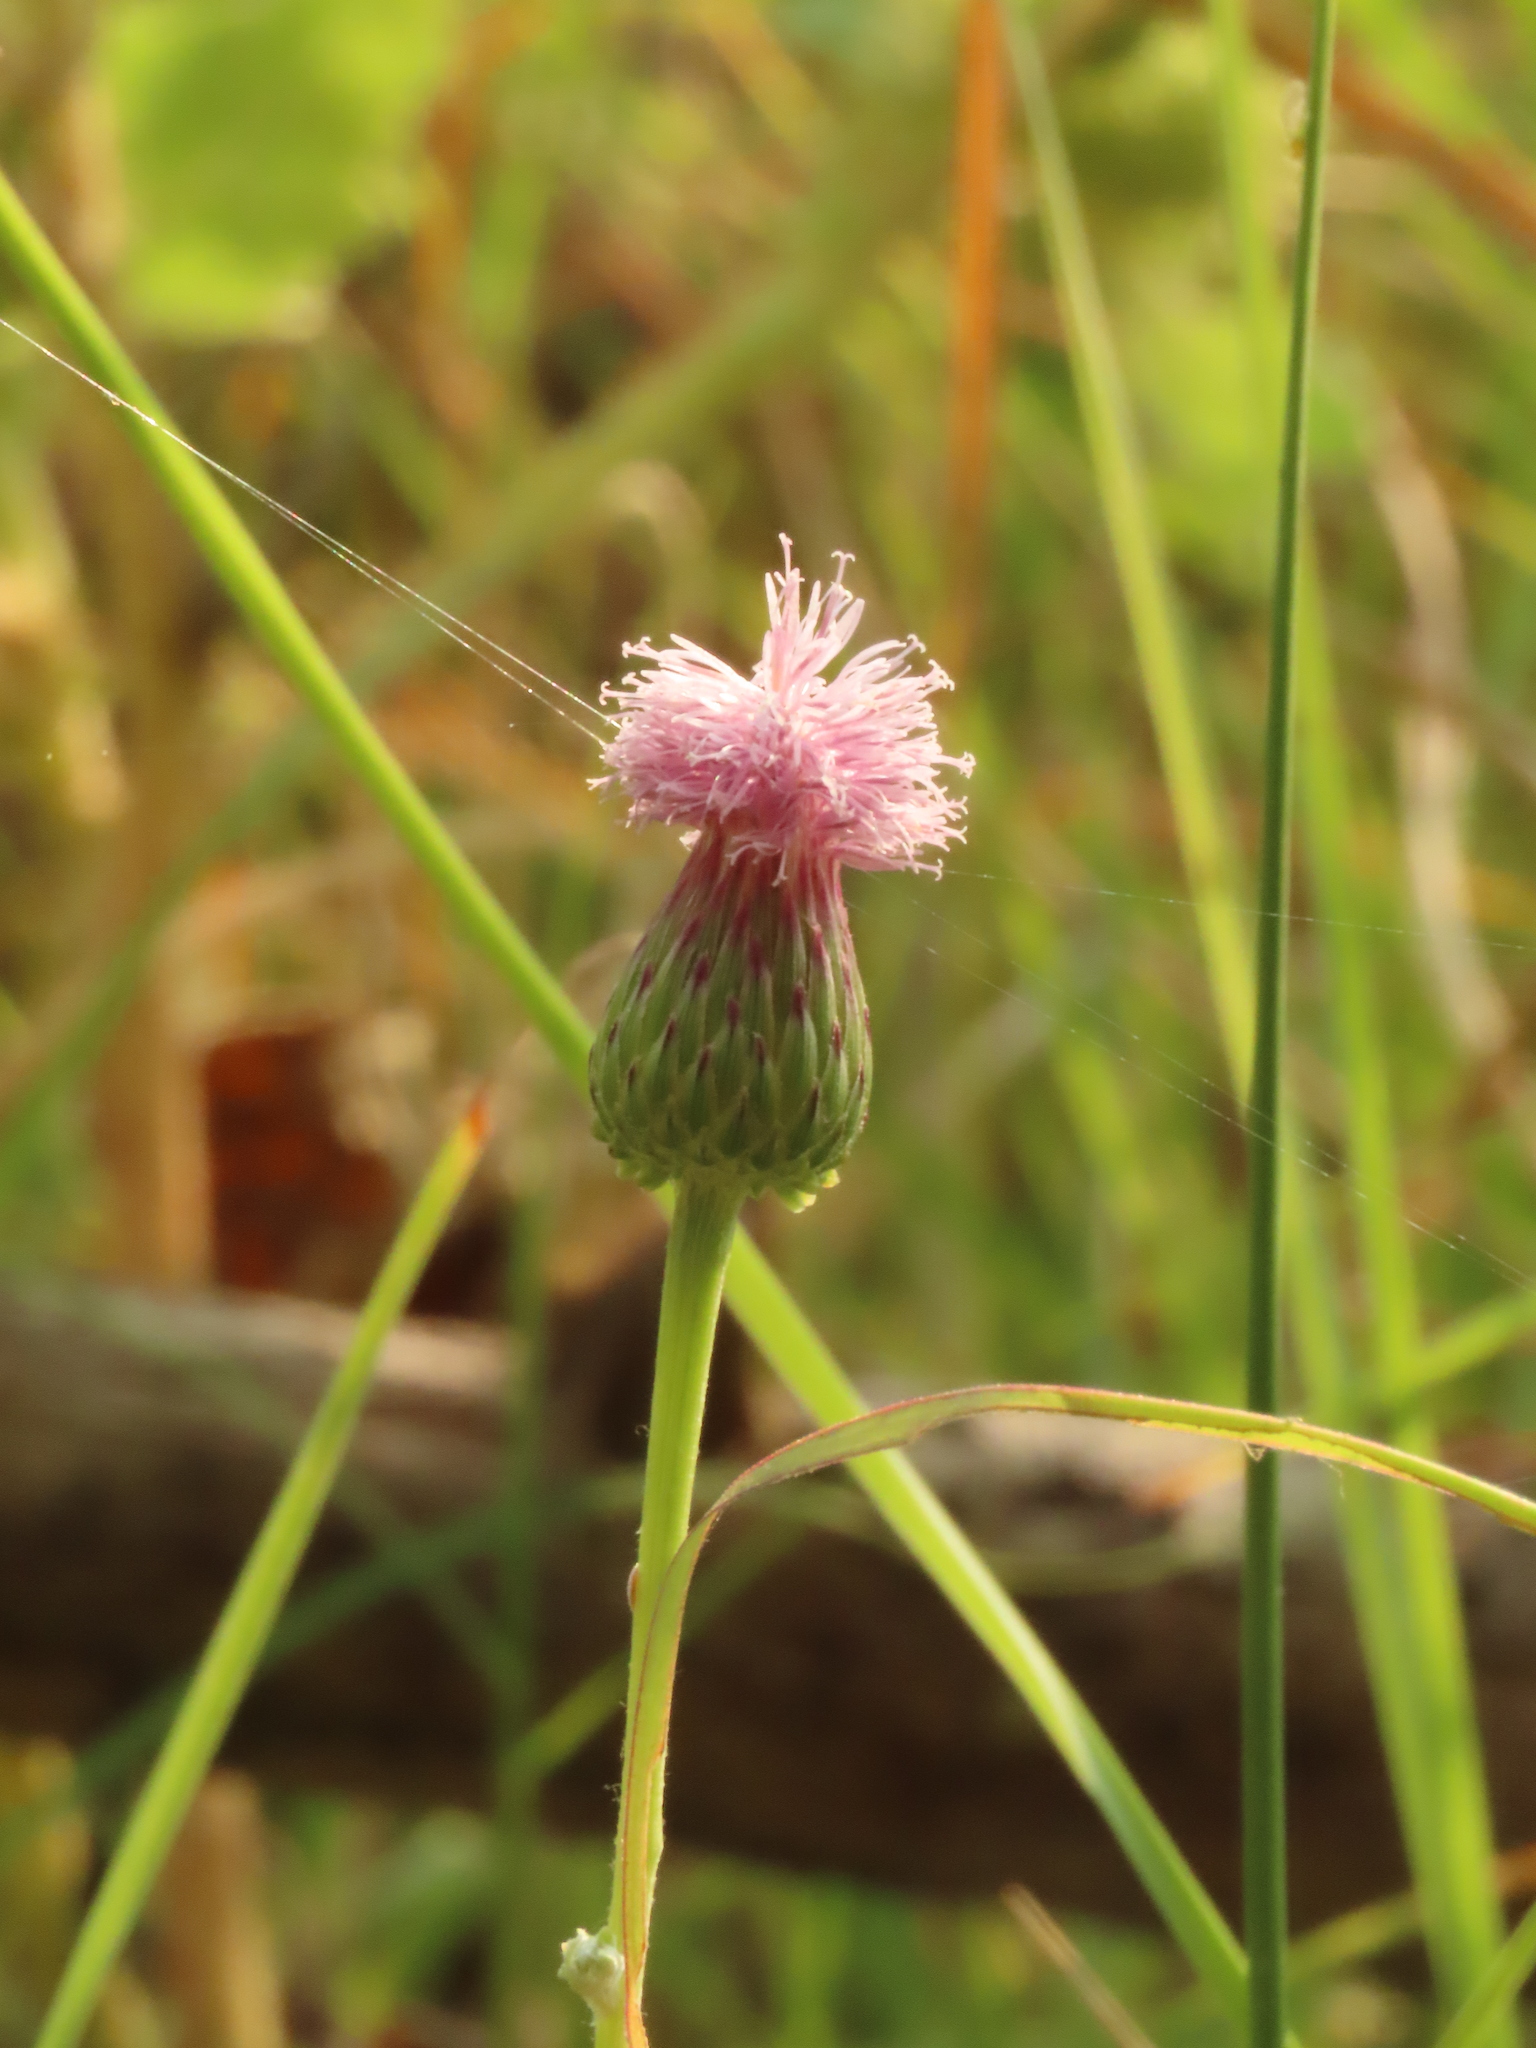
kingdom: Plantae
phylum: Tracheophyta
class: Magnoliopsida
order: Asterales
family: Asteraceae
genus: Saussurea
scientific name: Saussurea lyrata
